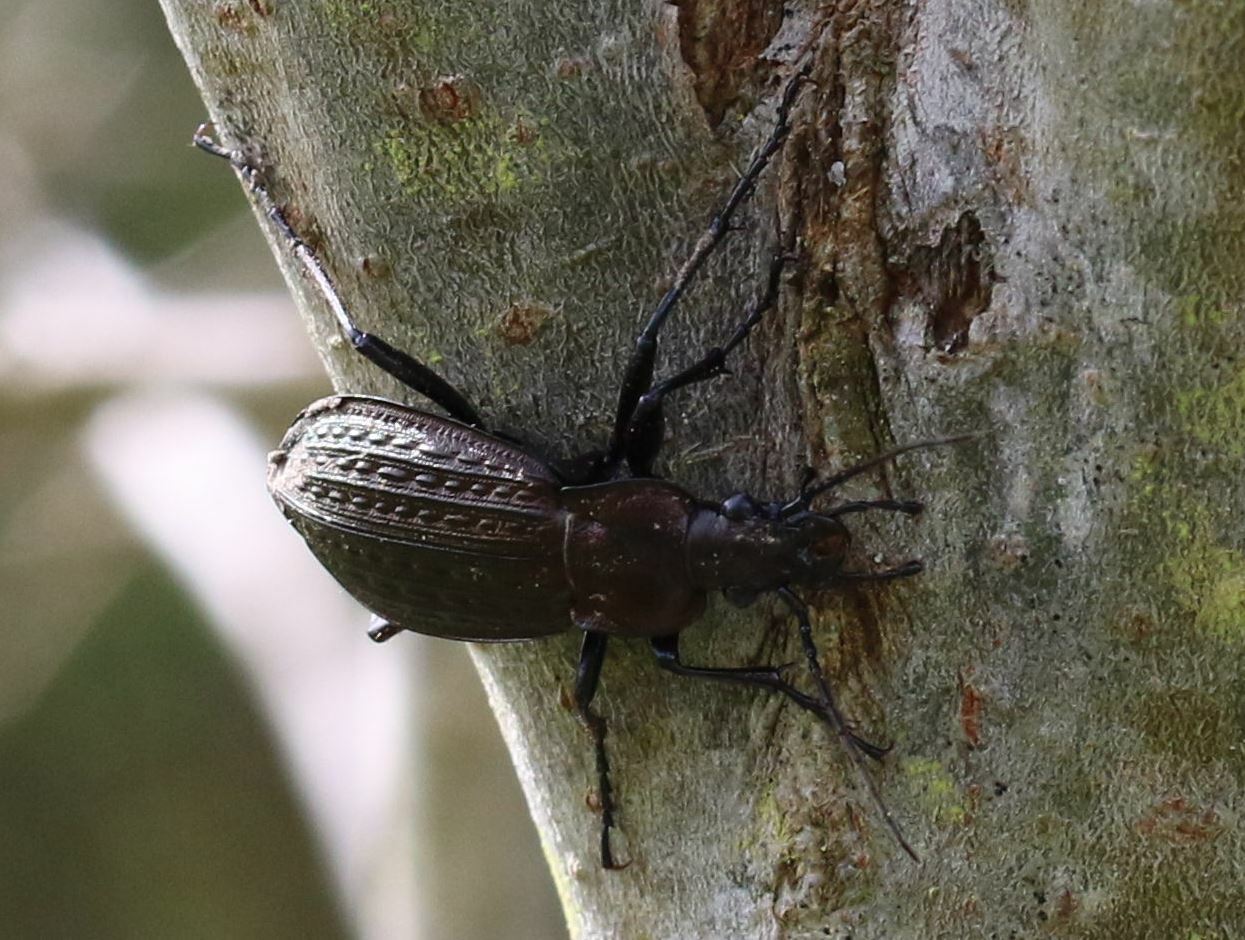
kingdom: Animalia
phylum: Arthropoda
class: Insecta
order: Coleoptera
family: Carabidae
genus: Carabus
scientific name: Carabus granulatus
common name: Granulate ground beetle
